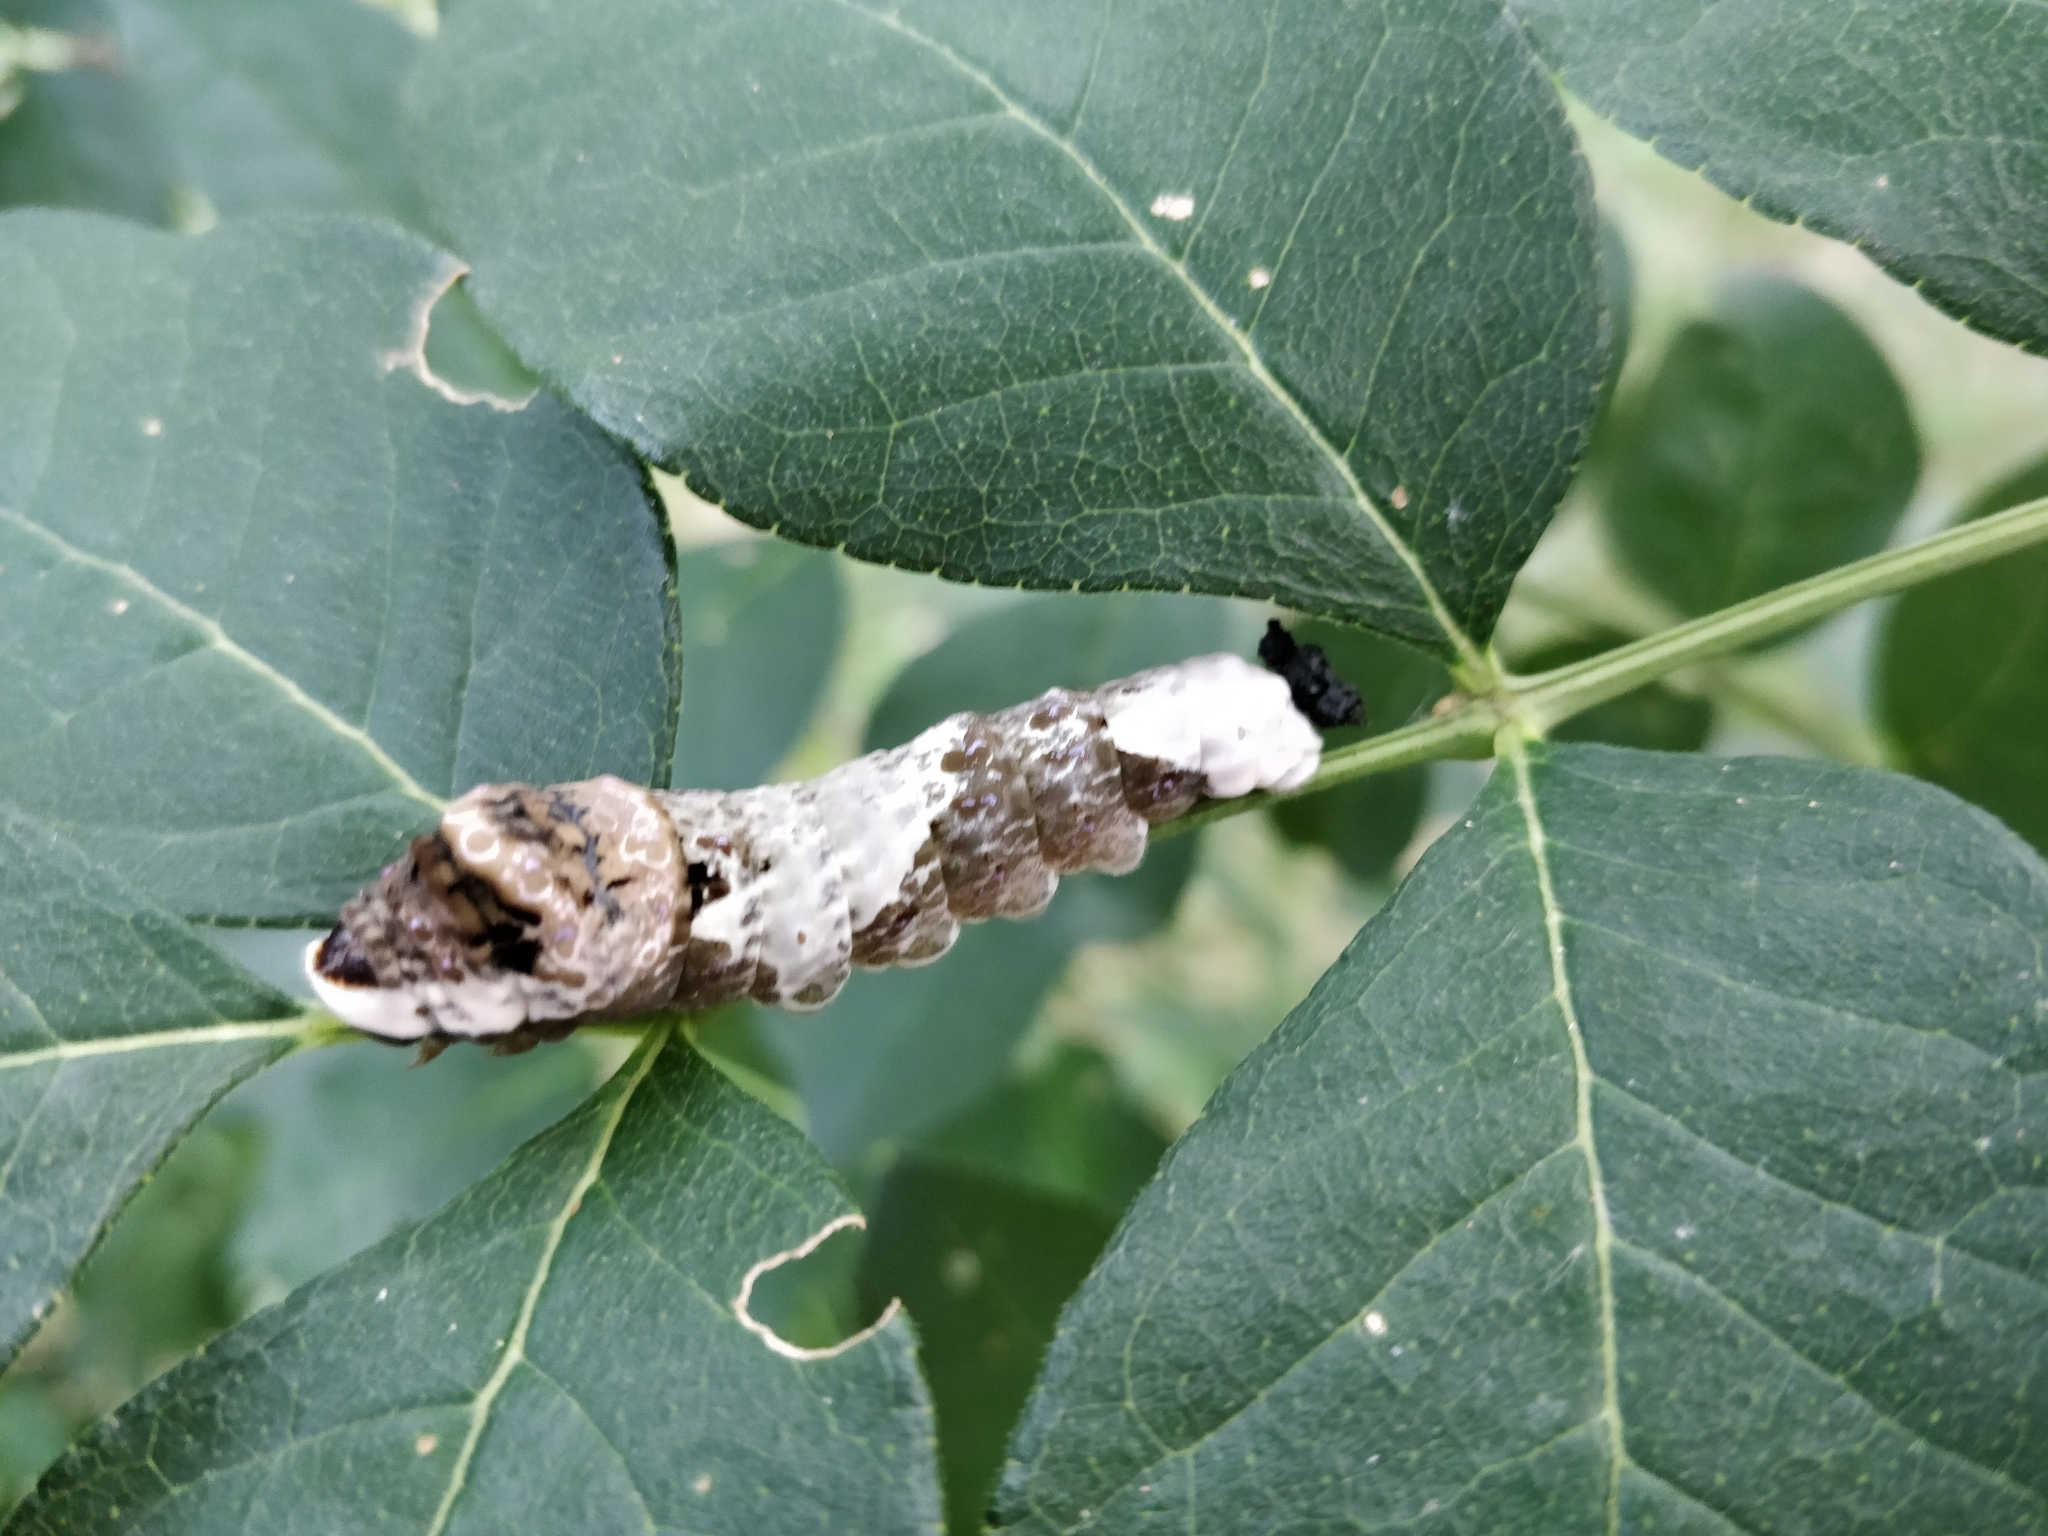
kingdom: Animalia
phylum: Arthropoda
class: Insecta
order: Lepidoptera
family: Papilionidae
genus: Papilio
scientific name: Papilio cresphontes
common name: Giant swallowtail
